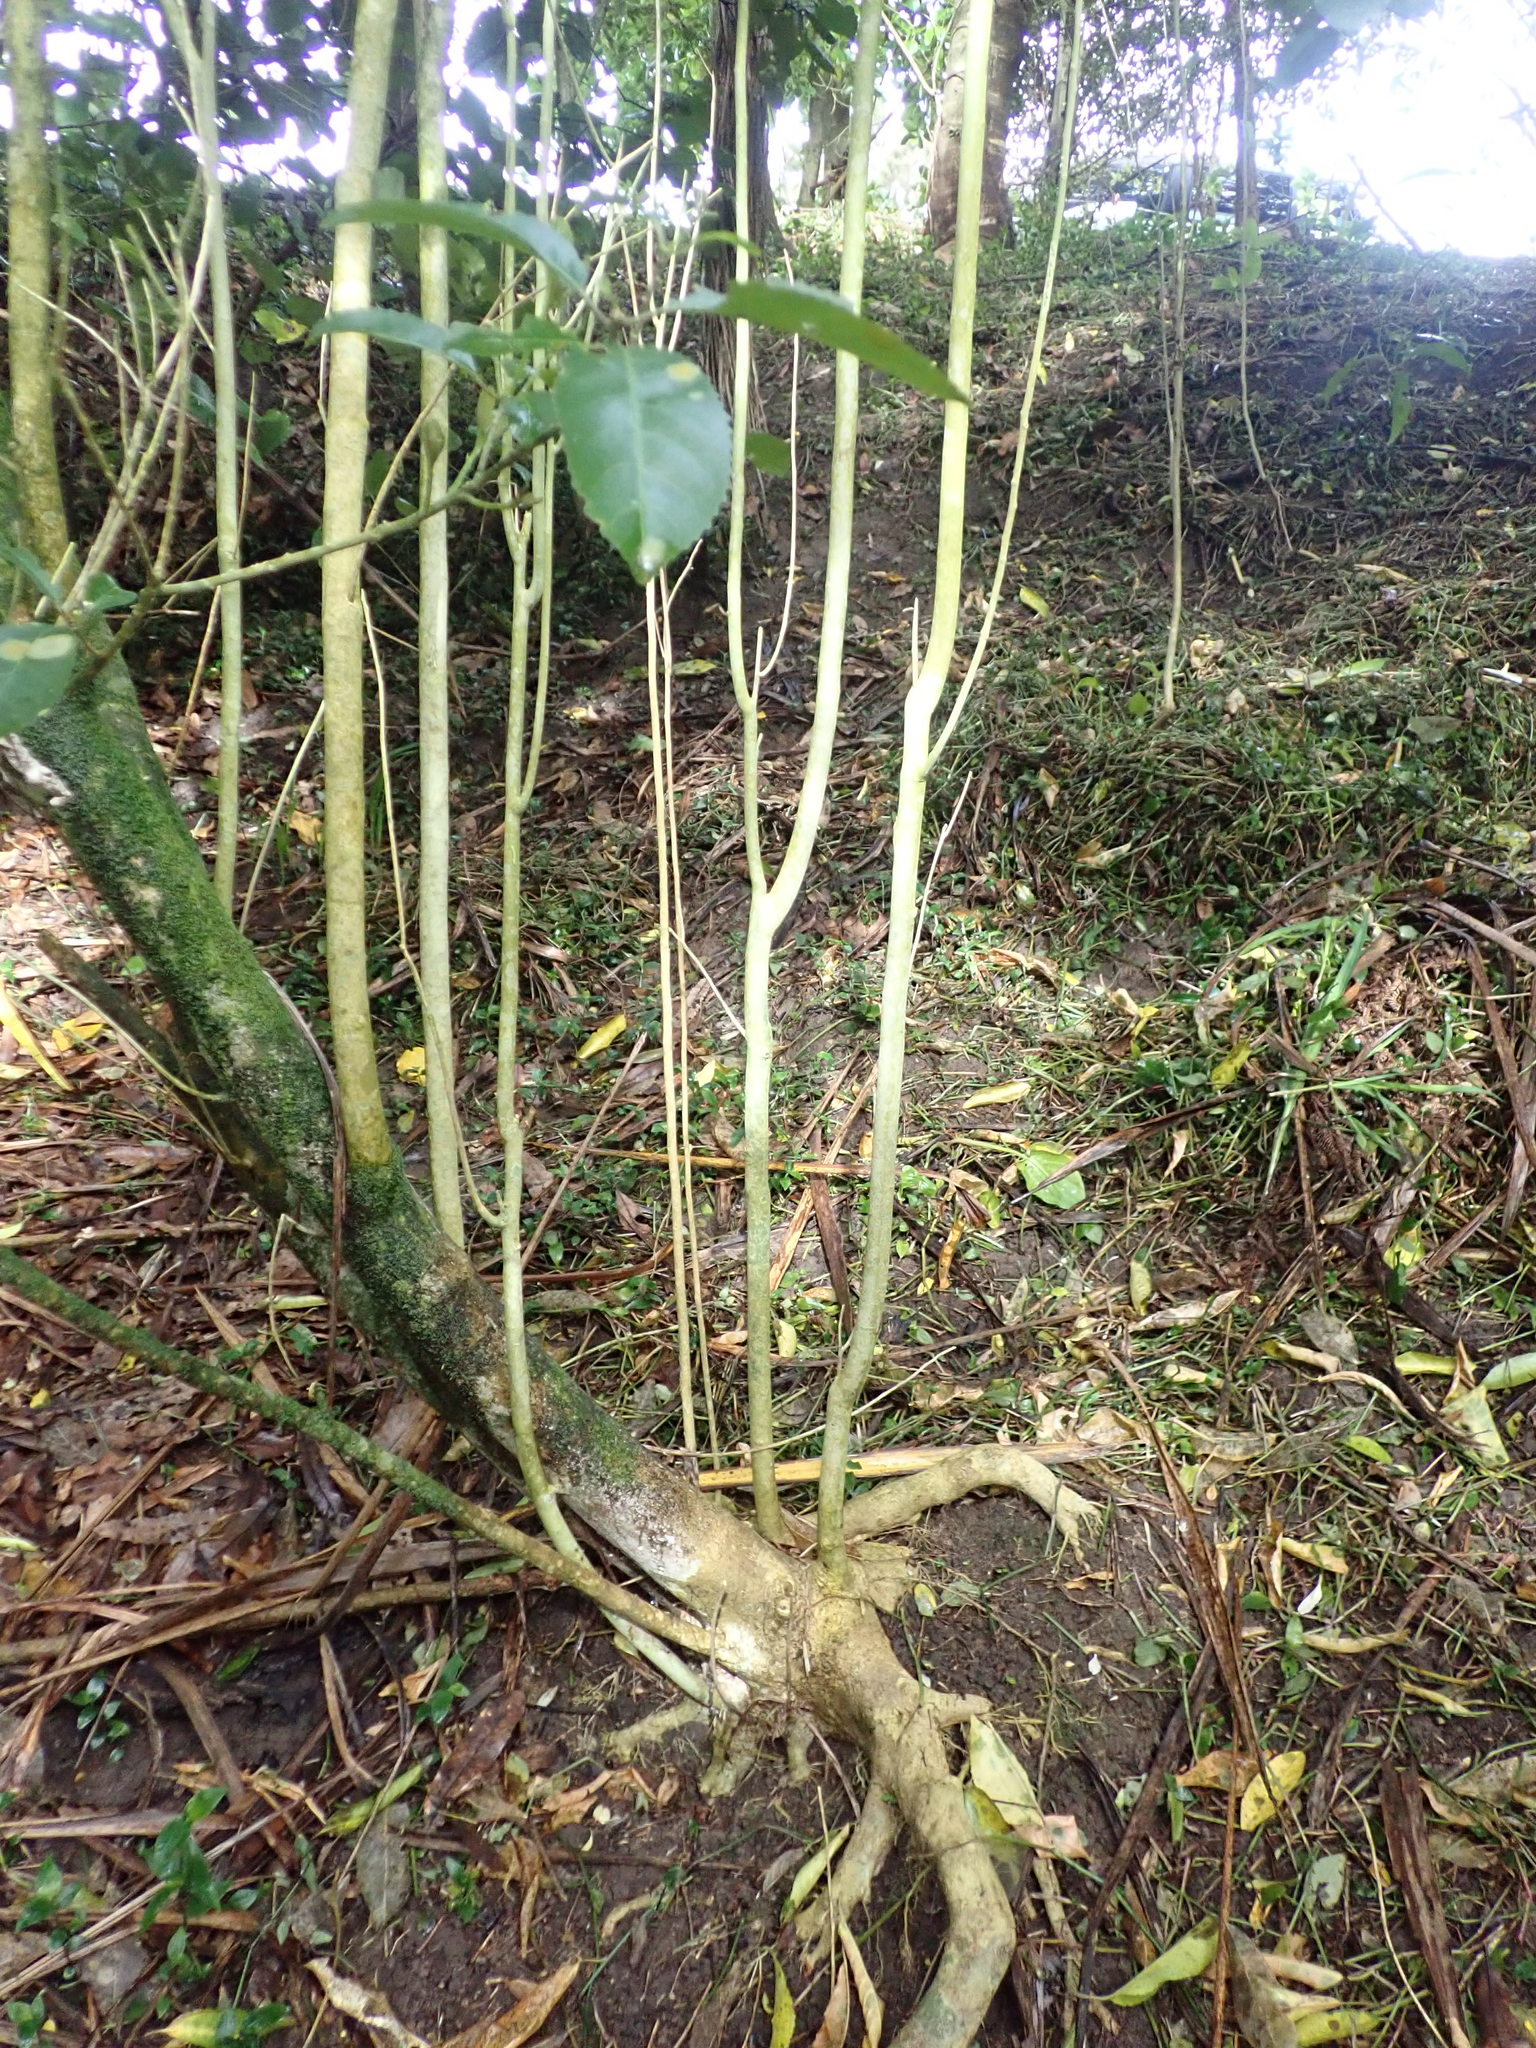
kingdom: Plantae
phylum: Tracheophyta
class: Magnoliopsida
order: Malpighiales
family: Violaceae
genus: Melicytus
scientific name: Melicytus ramiflorus
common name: Mahoe
